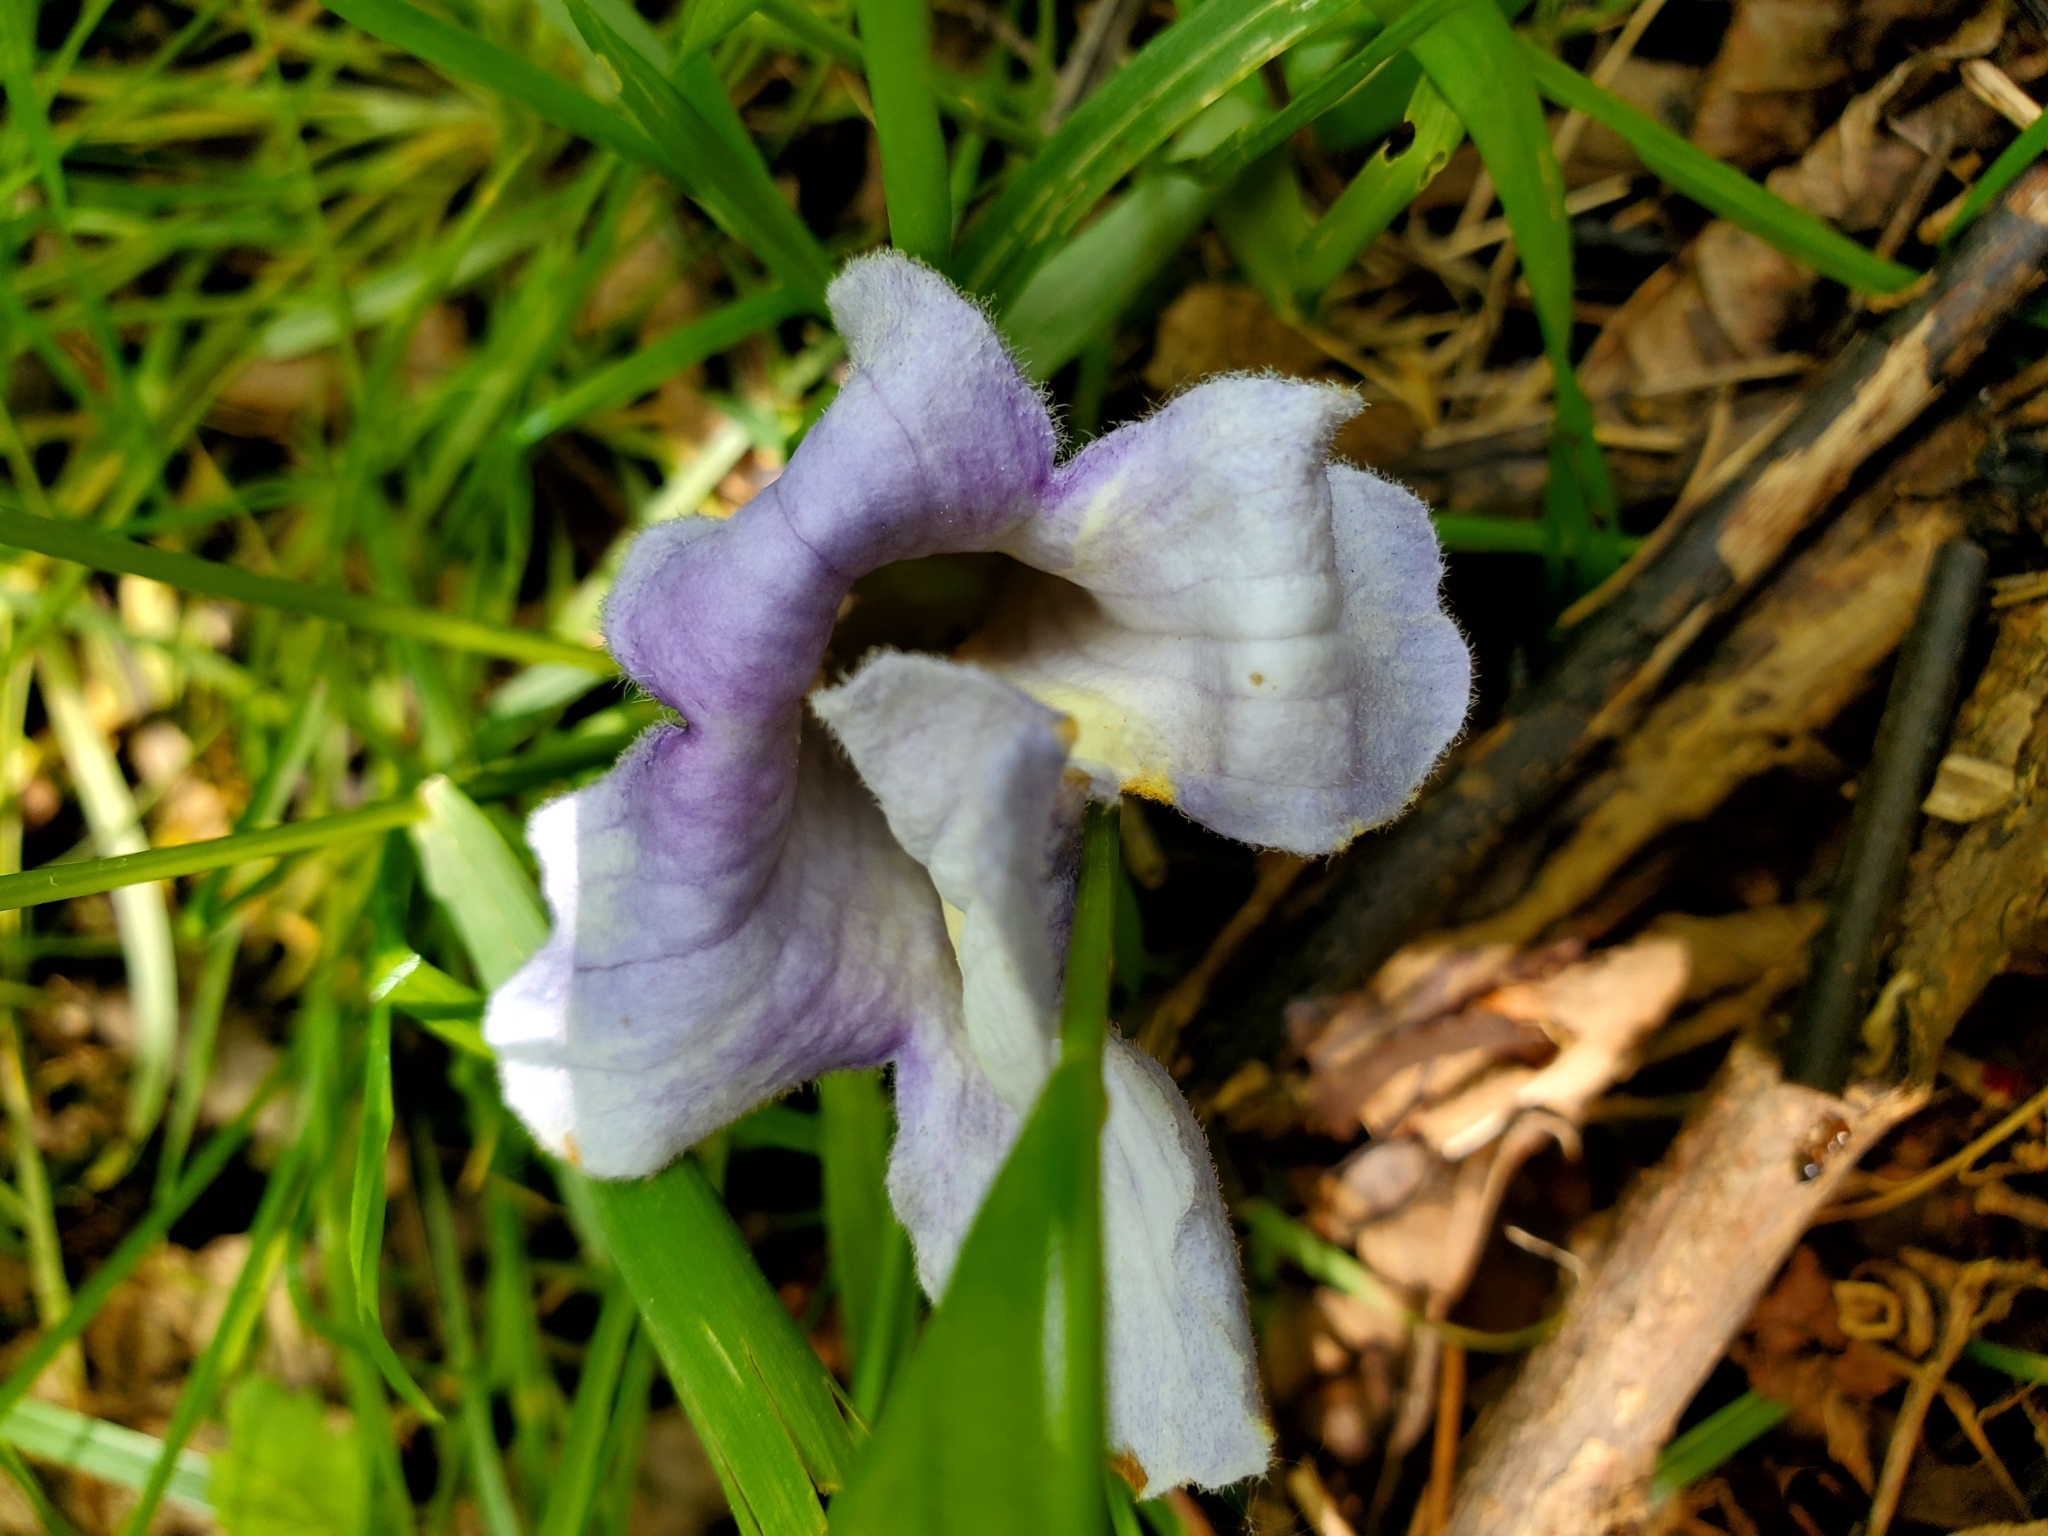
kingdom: Plantae
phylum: Tracheophyta
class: Magnoliopsida
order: Lamiales
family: Paulowniaceae
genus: Paulownia
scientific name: Paulownia tomentosa
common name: Foxglove-tree
